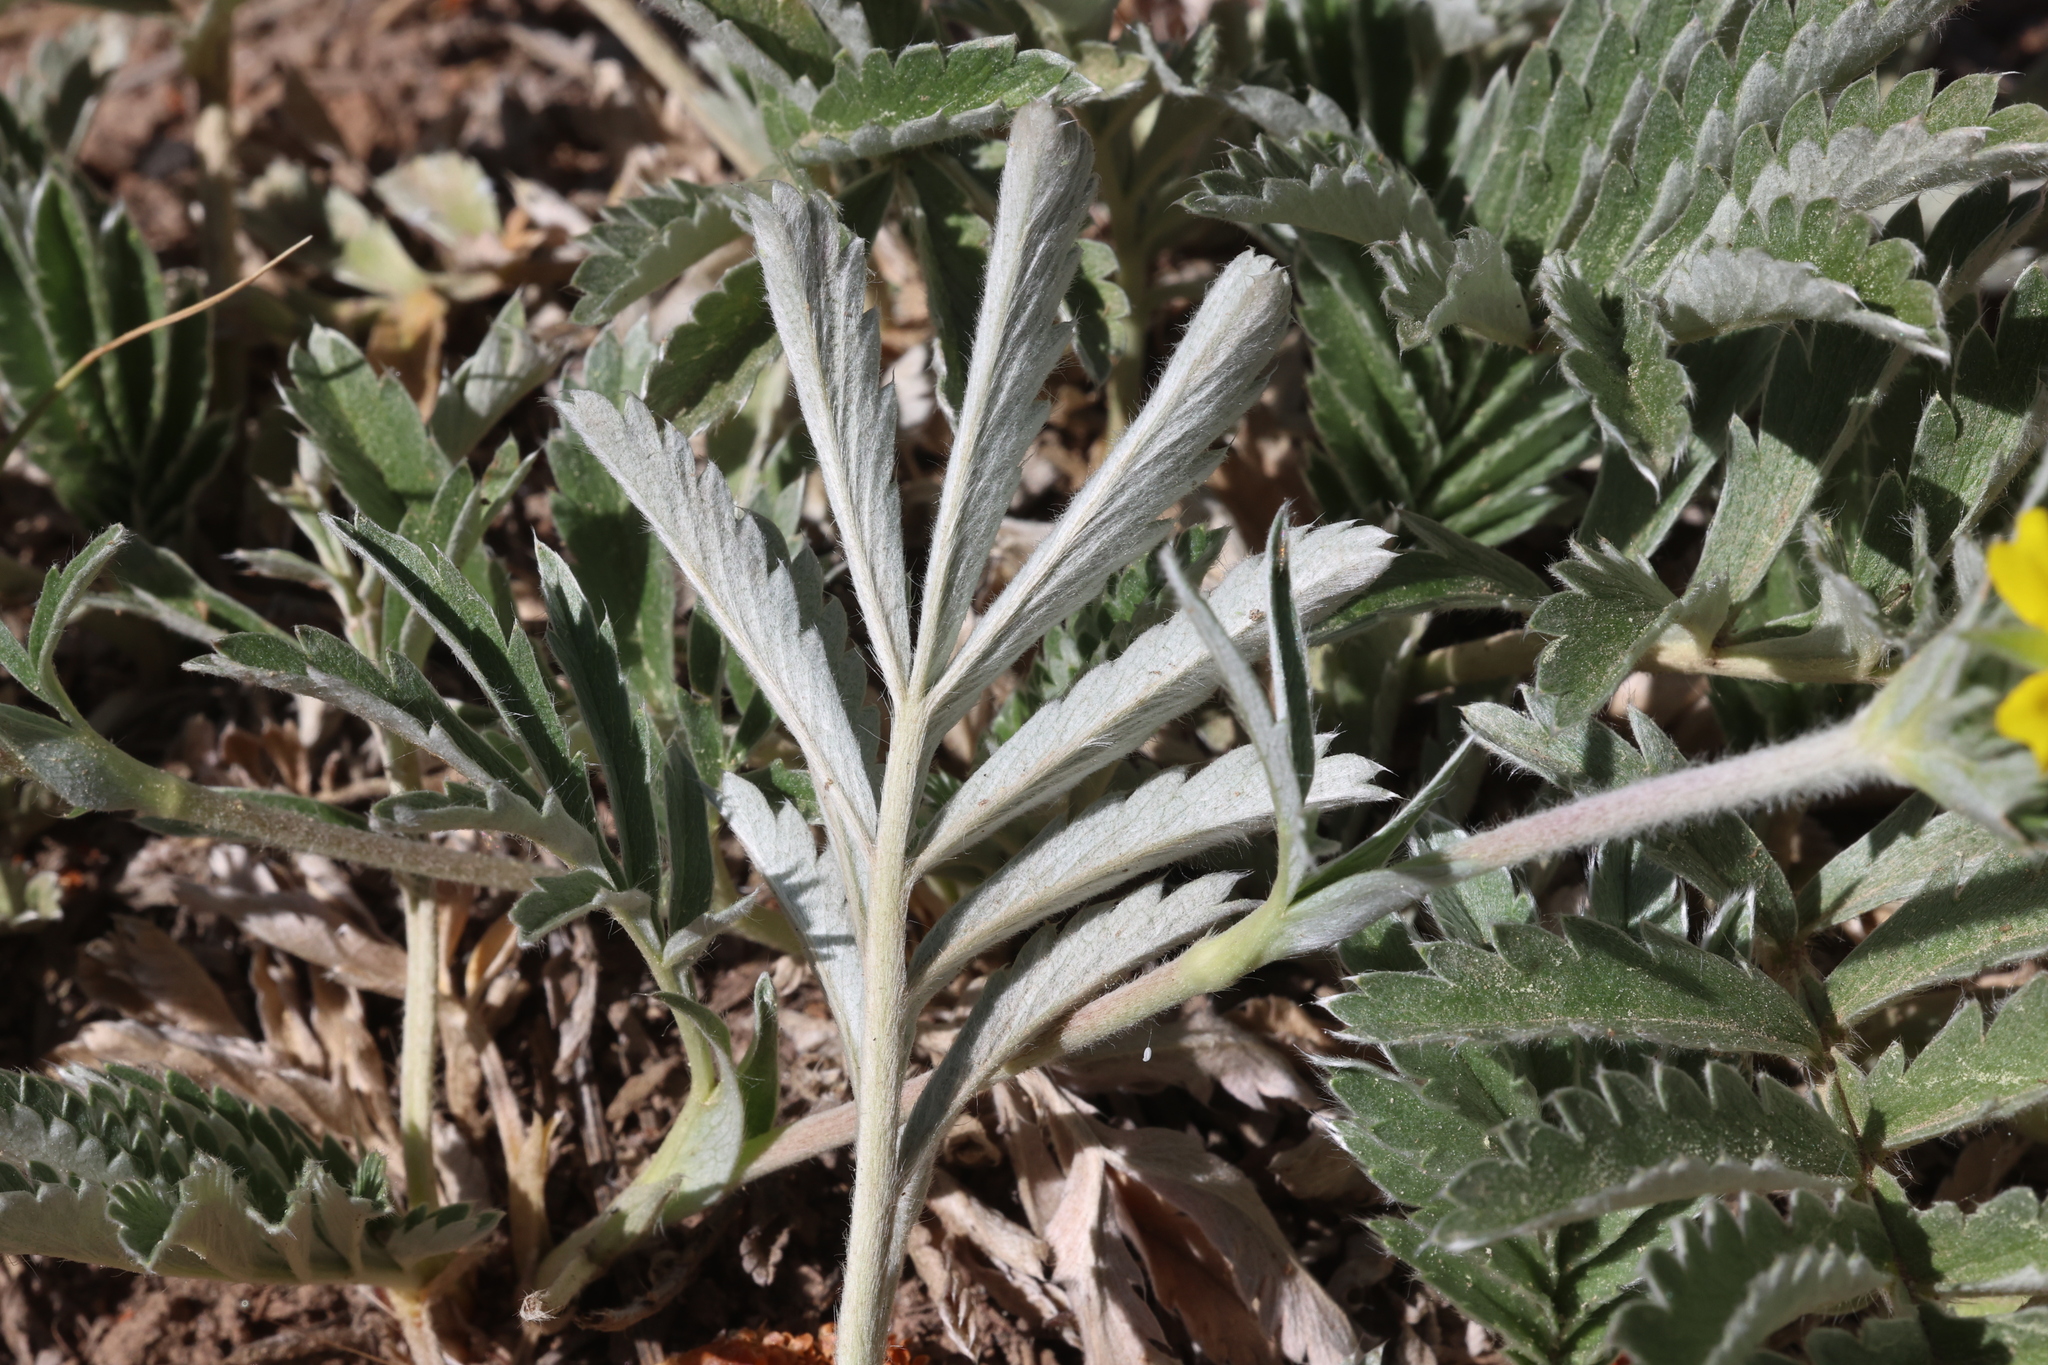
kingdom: Plantae
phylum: Tracheophyta
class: Magnoliopsida
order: Rosales
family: Rosaceae
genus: Potentilla
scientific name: Potentilla hippiana
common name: Woolly cinquefoil
